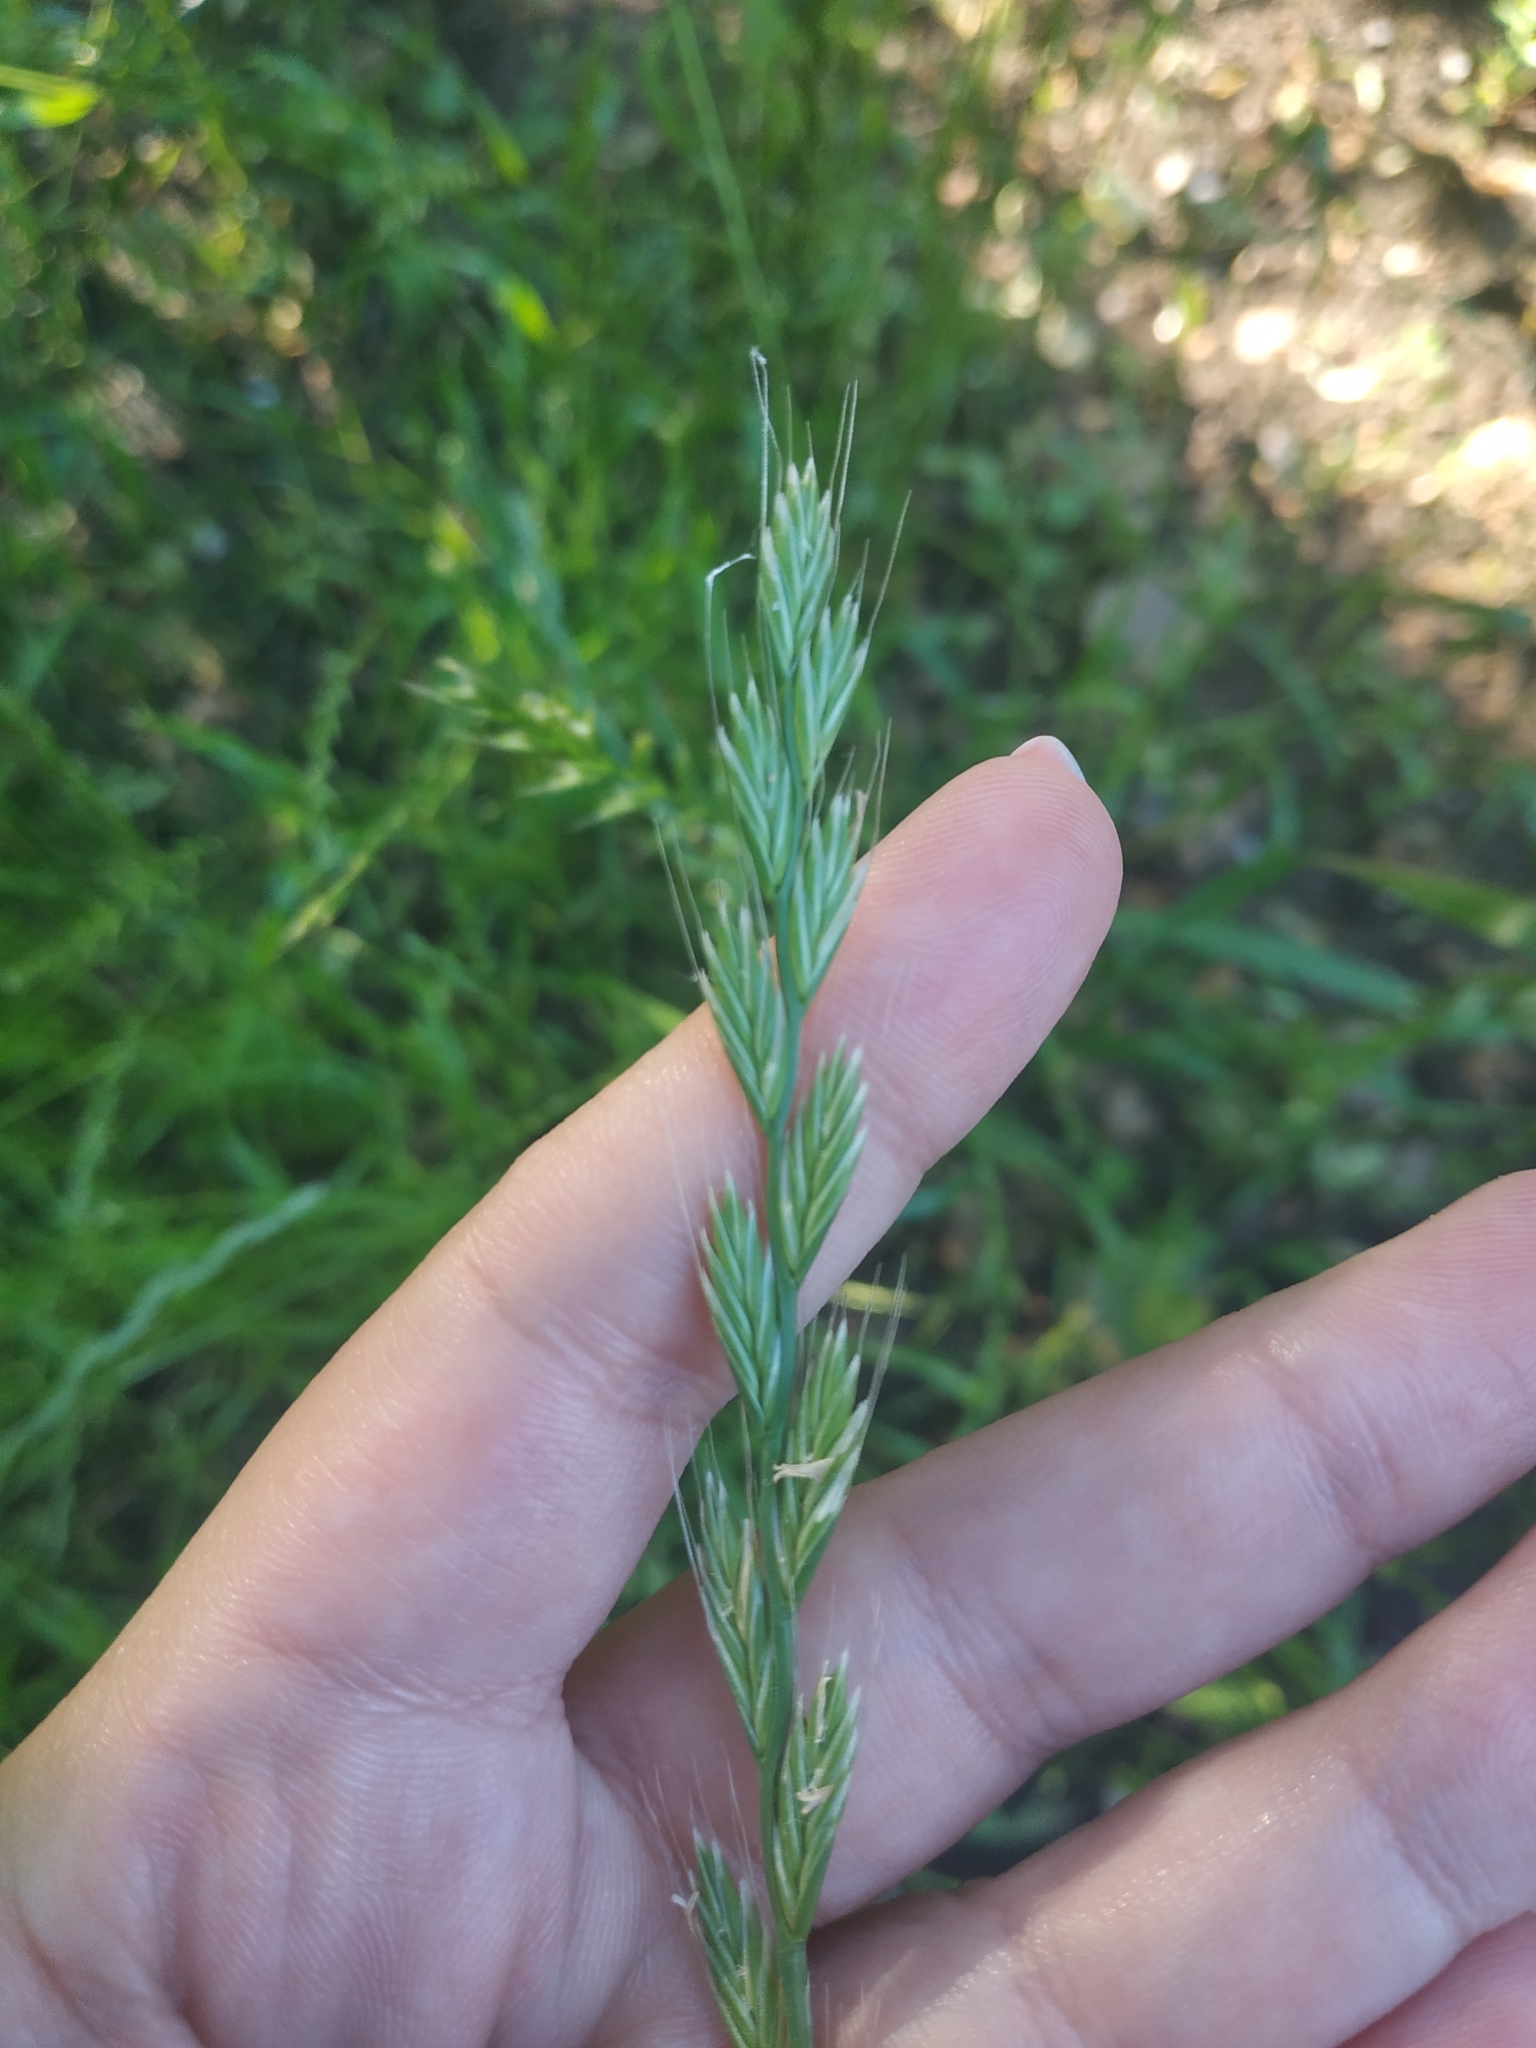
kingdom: Plantae
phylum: Tracheophyta
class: Liliopsida
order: Poales
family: Poaceae
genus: Lolium
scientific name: Lolium multiflorum
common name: Annual ryegrass
